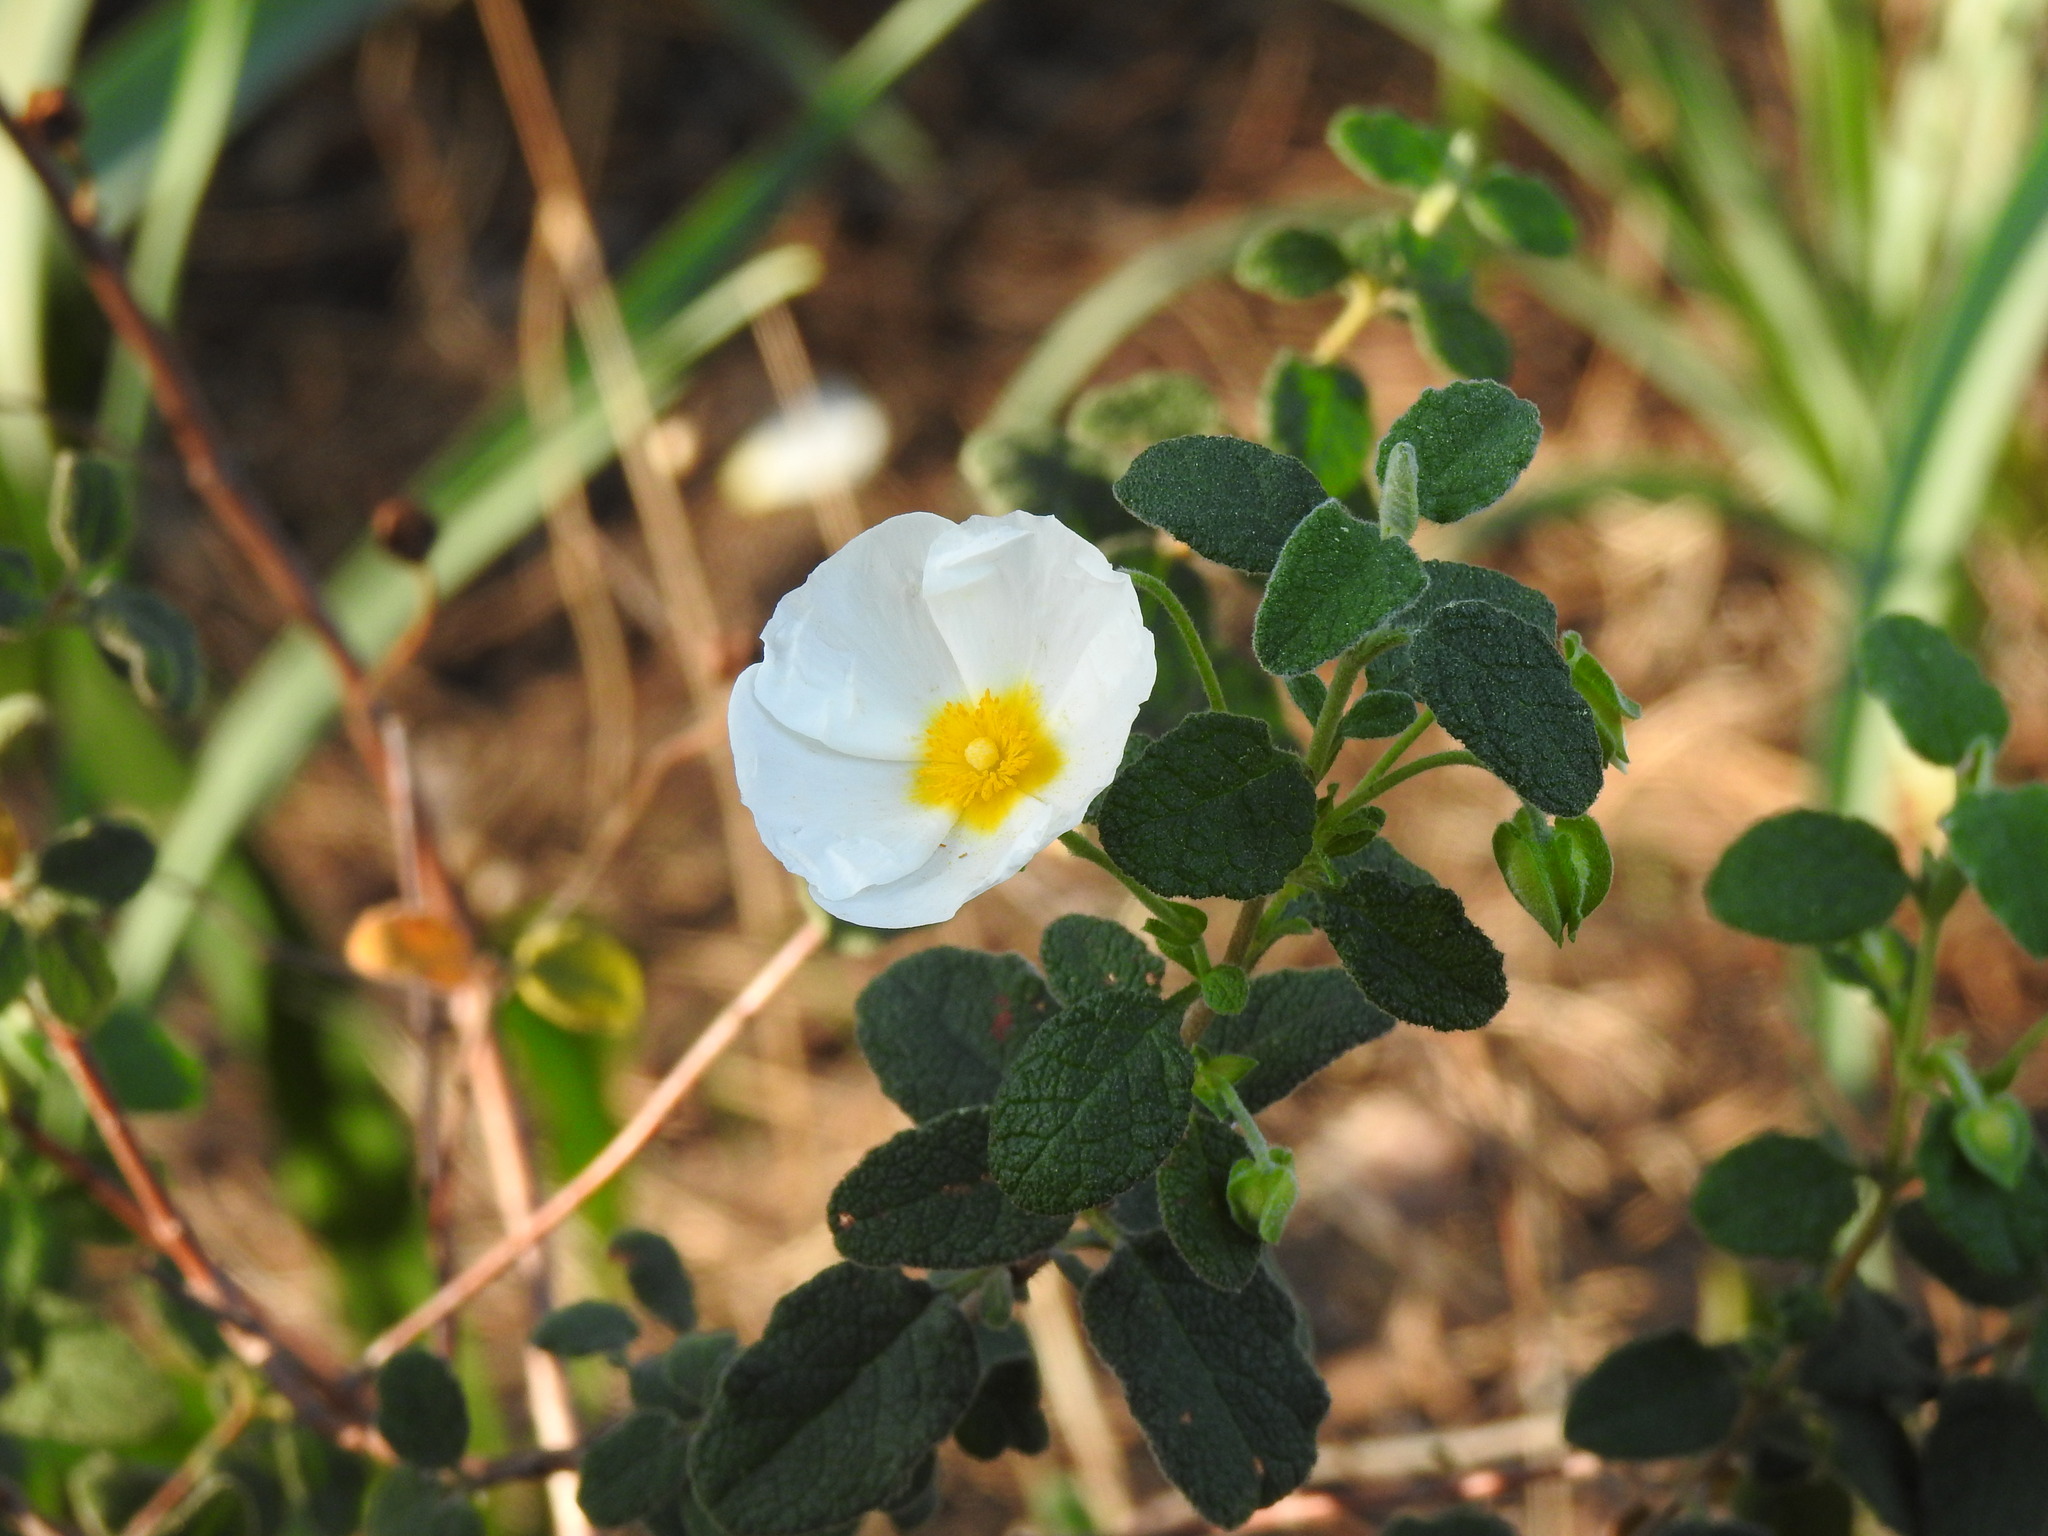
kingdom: Plantae
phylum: Tracheophyta
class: Magnoliopsida
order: Malvales
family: Cistaceae
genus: Cistus
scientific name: Cistus salviifolius
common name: Salvia cistus
